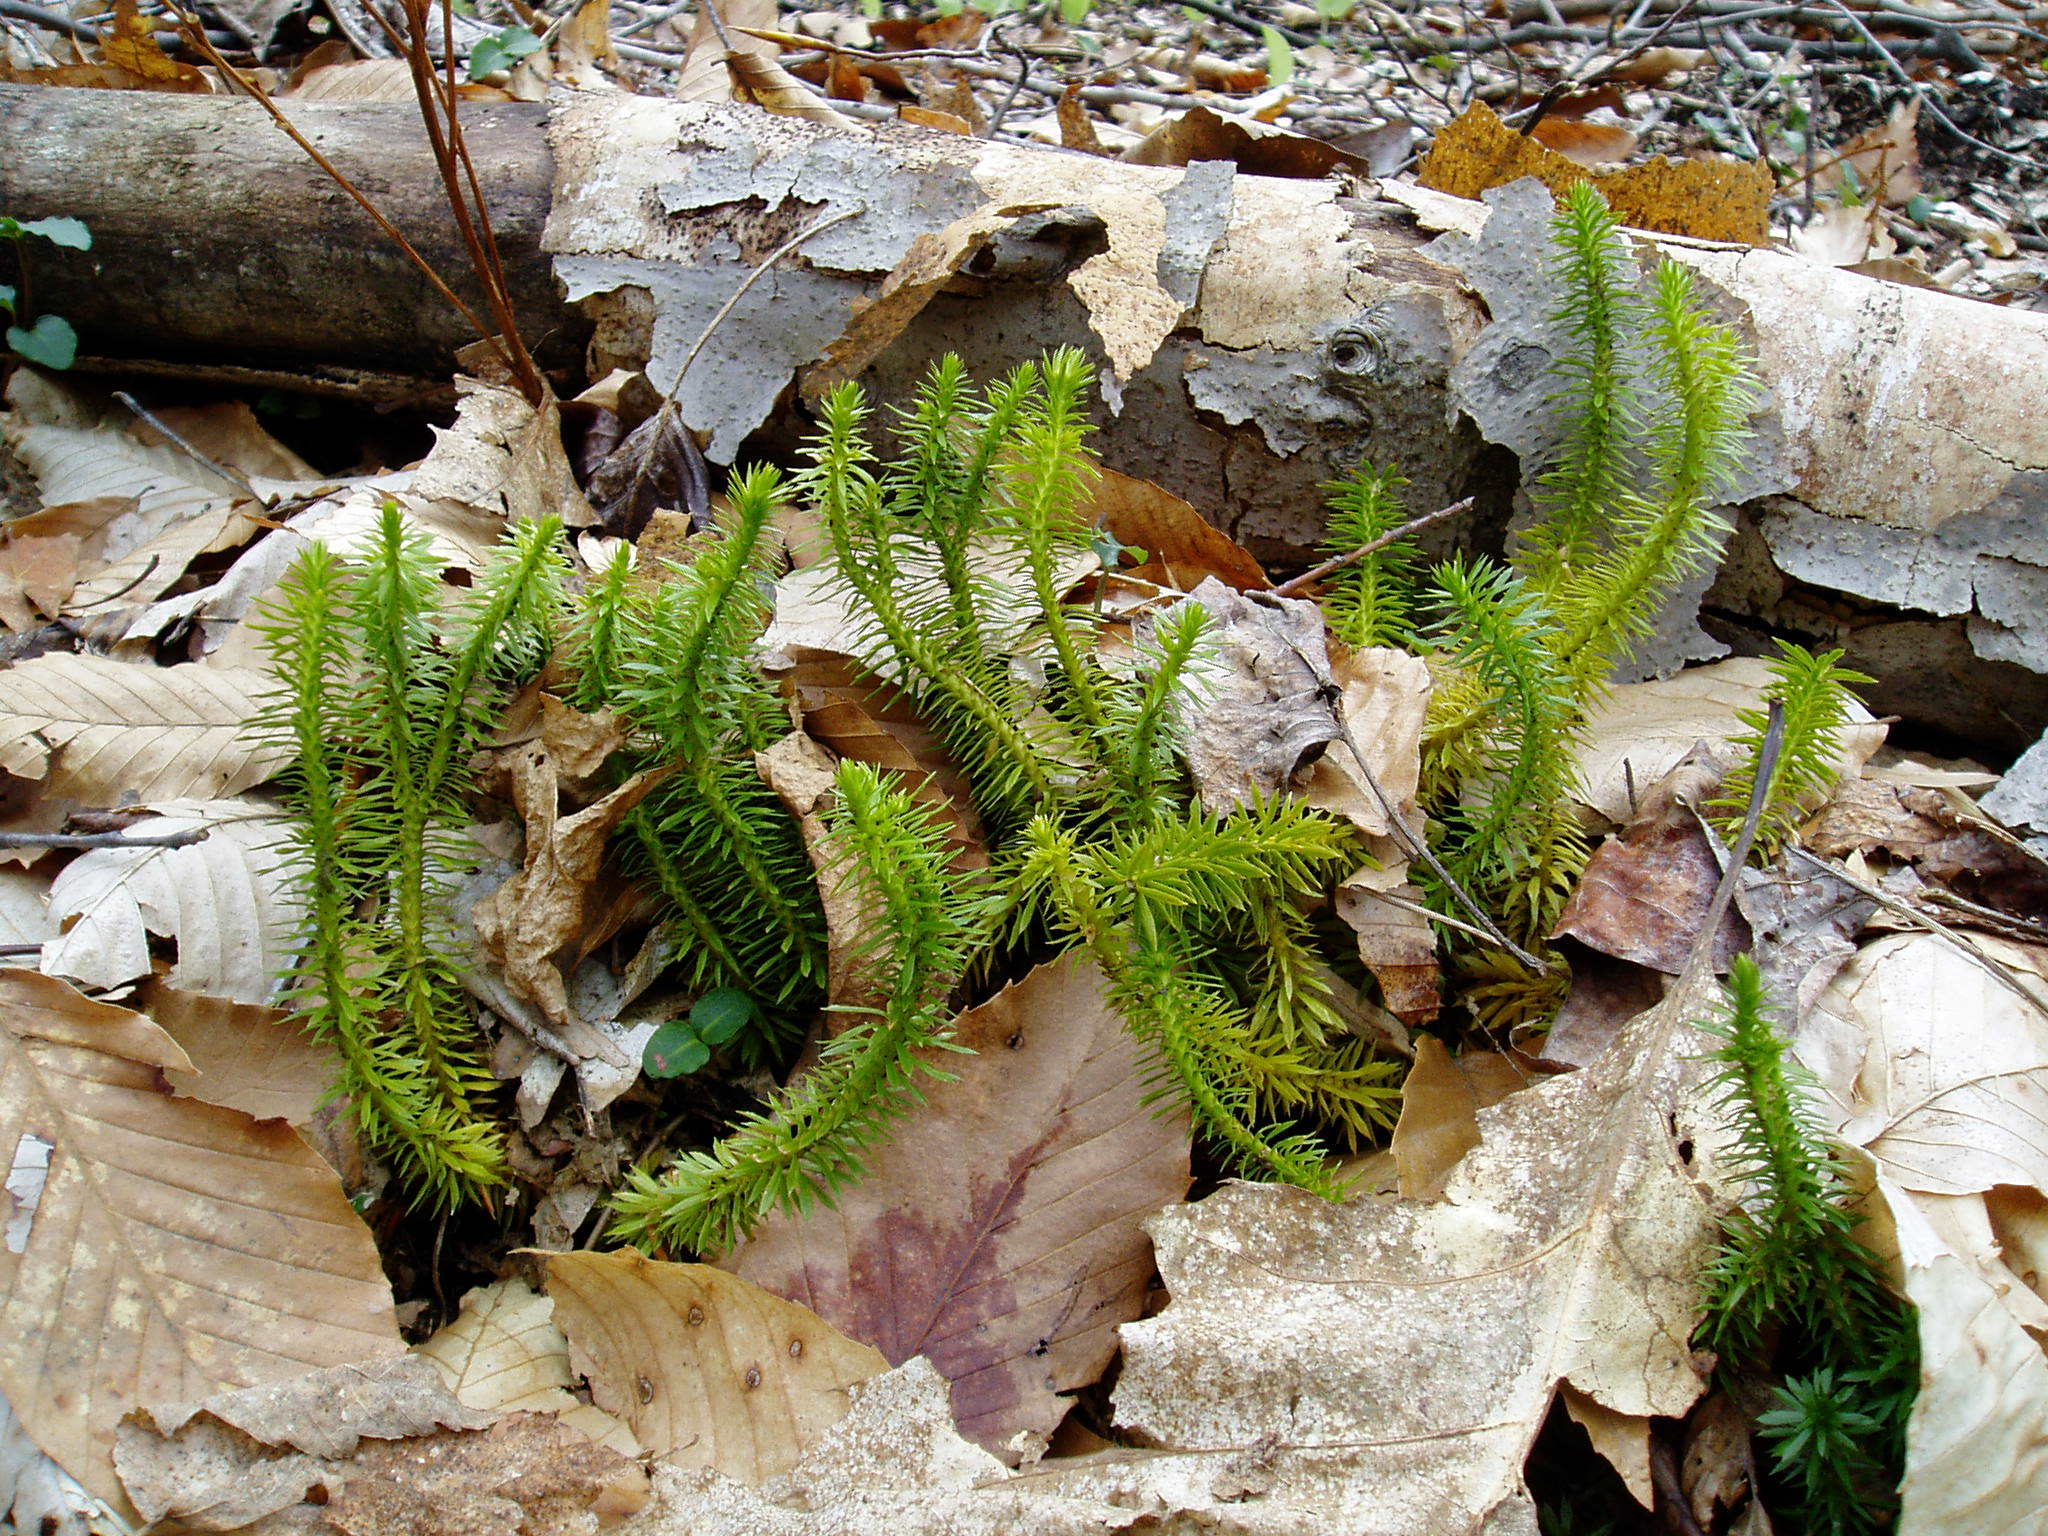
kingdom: Plantae
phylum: Tracheophyta
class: Lycopodiopsida
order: Lycopodiales
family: Lycopodiaceae
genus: Huperzia
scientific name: Huperzia lucidula
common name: Shining clubmoss
